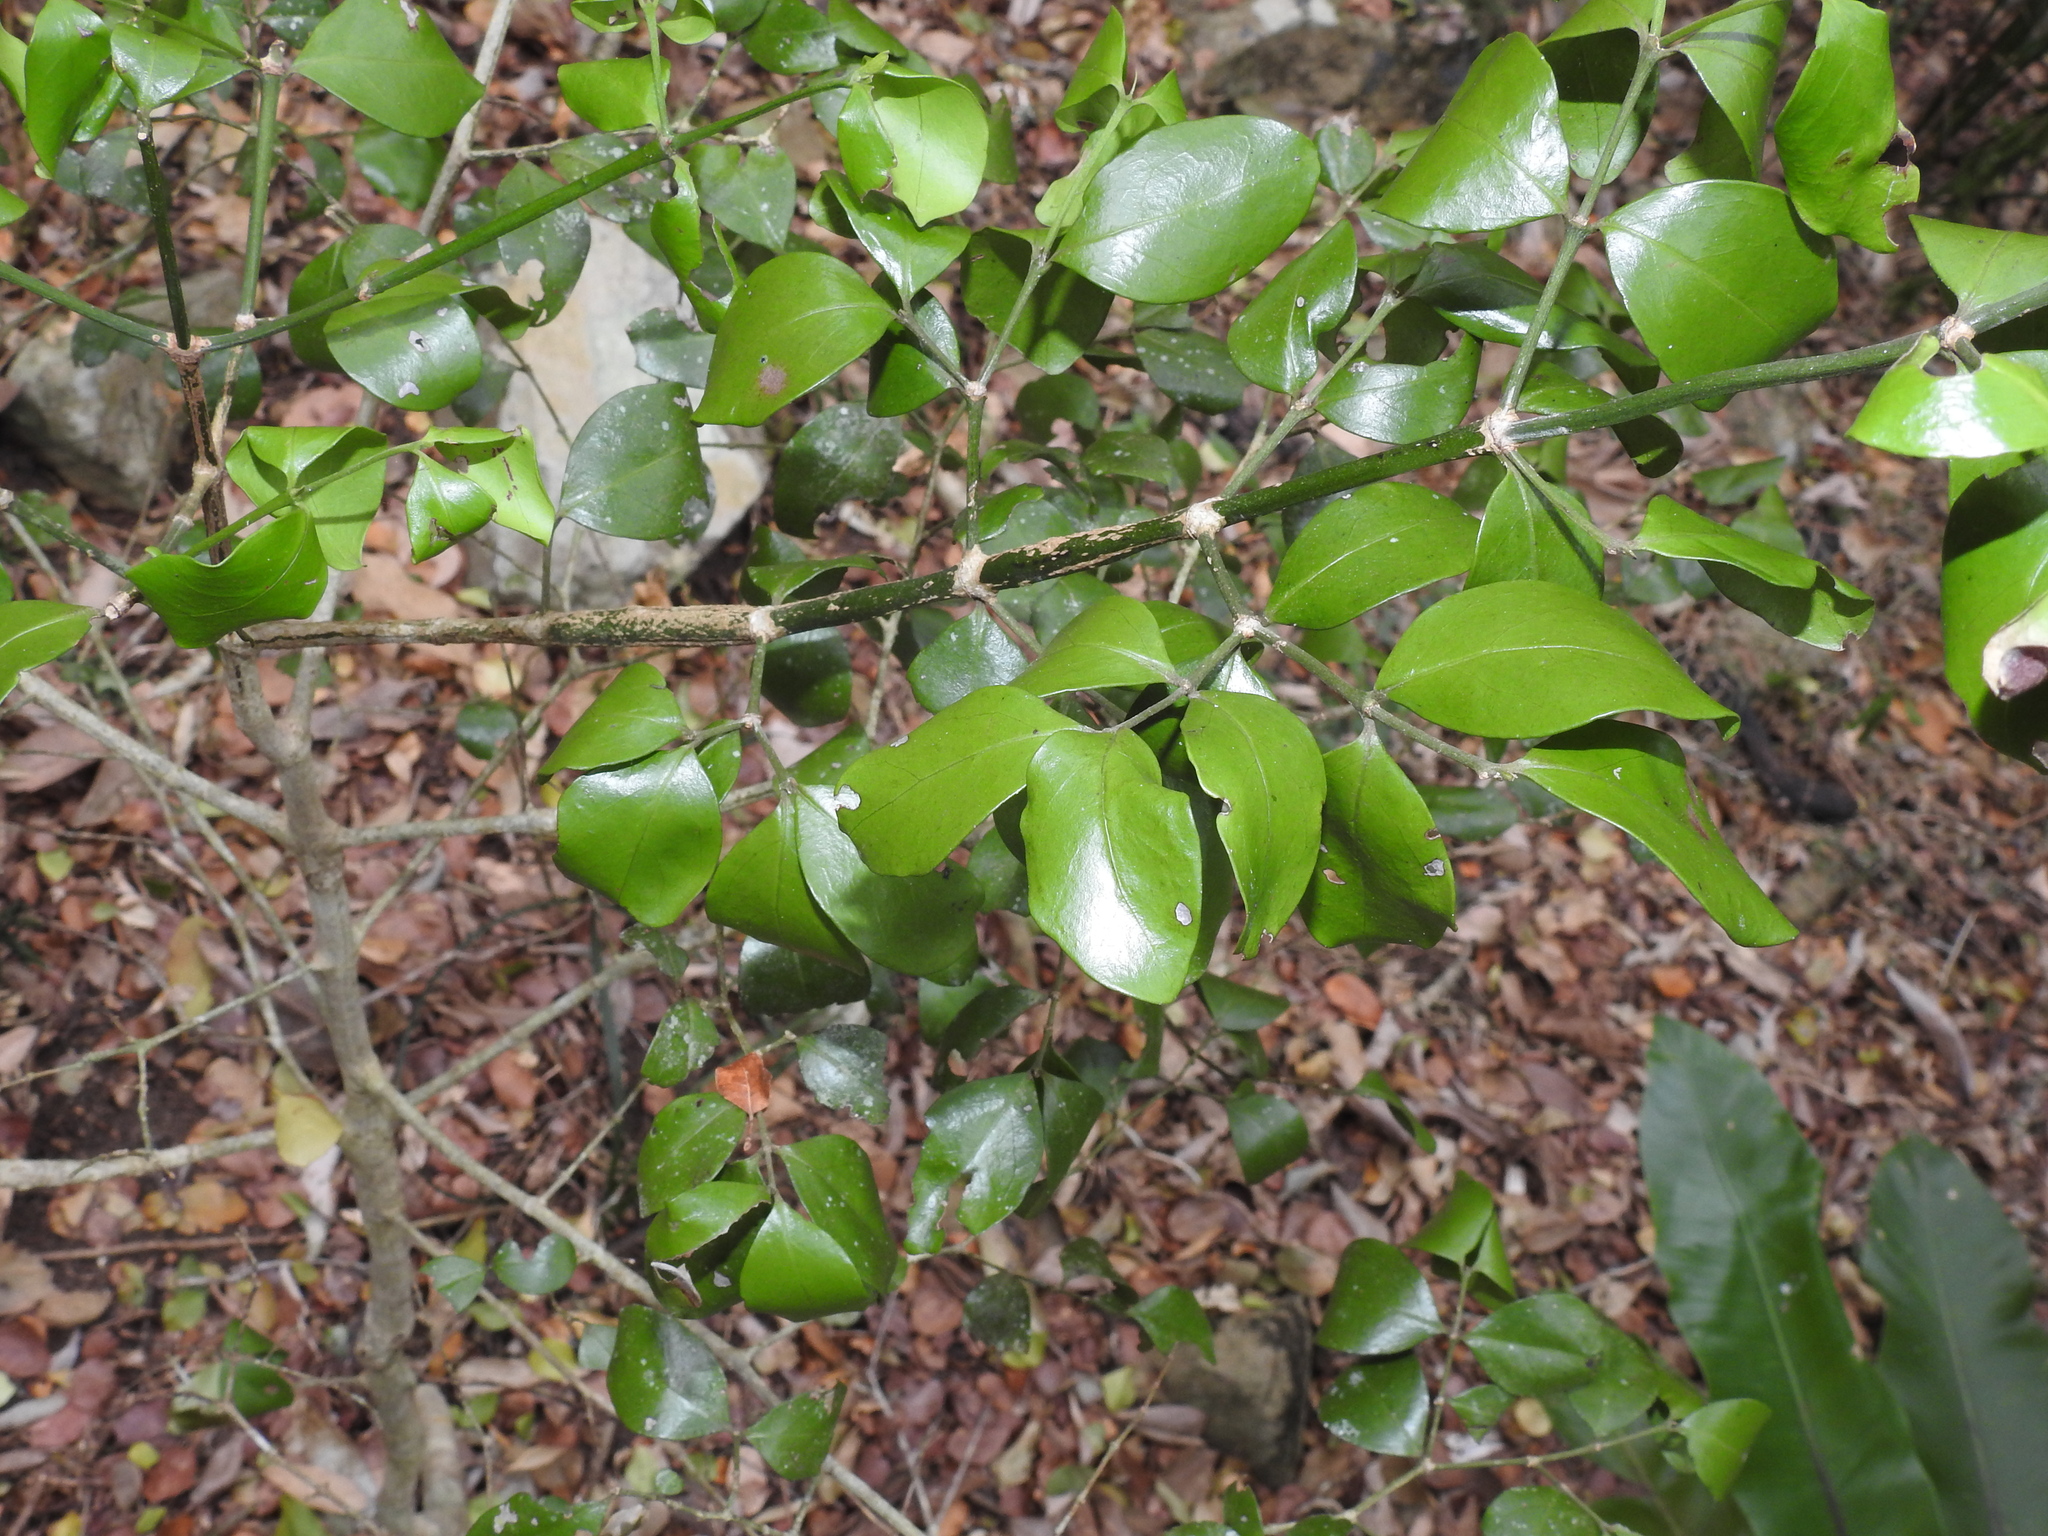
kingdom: Plantae
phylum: Tracheophyta
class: Magnoliopsida
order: Gentianales
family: Rubiaceae
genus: Psydrax
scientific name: Psydrax odoratus
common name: Alahe'e
